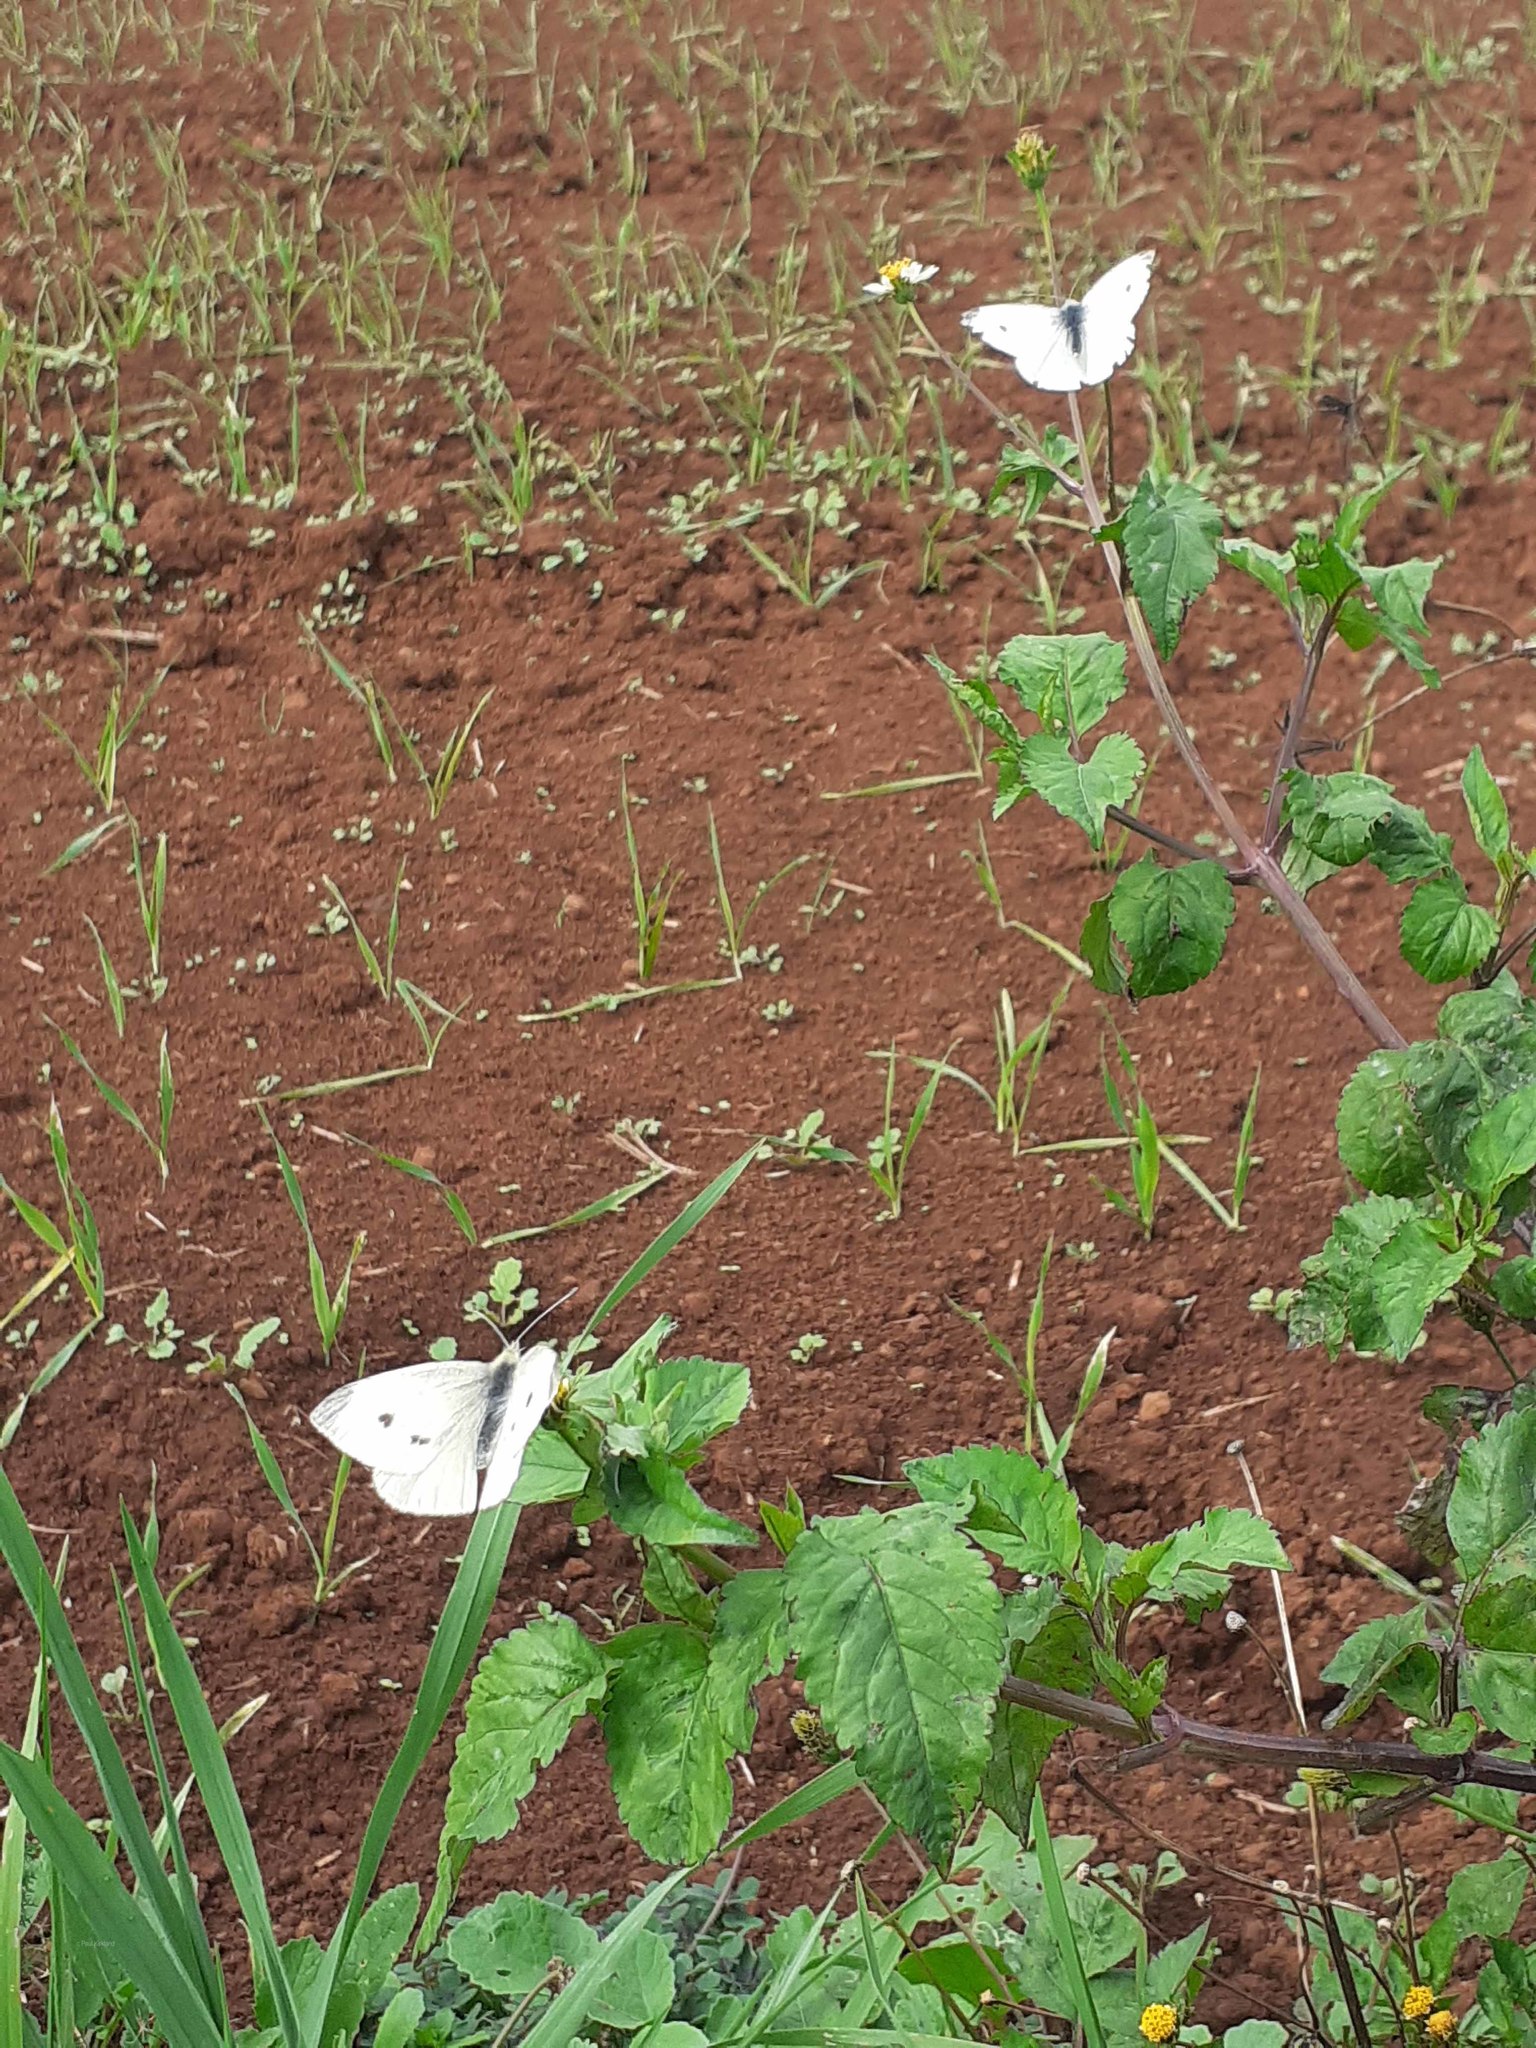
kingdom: Animalia
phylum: Arthropoda
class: Insecta
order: Lepidoptera
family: Pieridae
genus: Pieris
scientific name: Pieris rapae
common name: Small white
